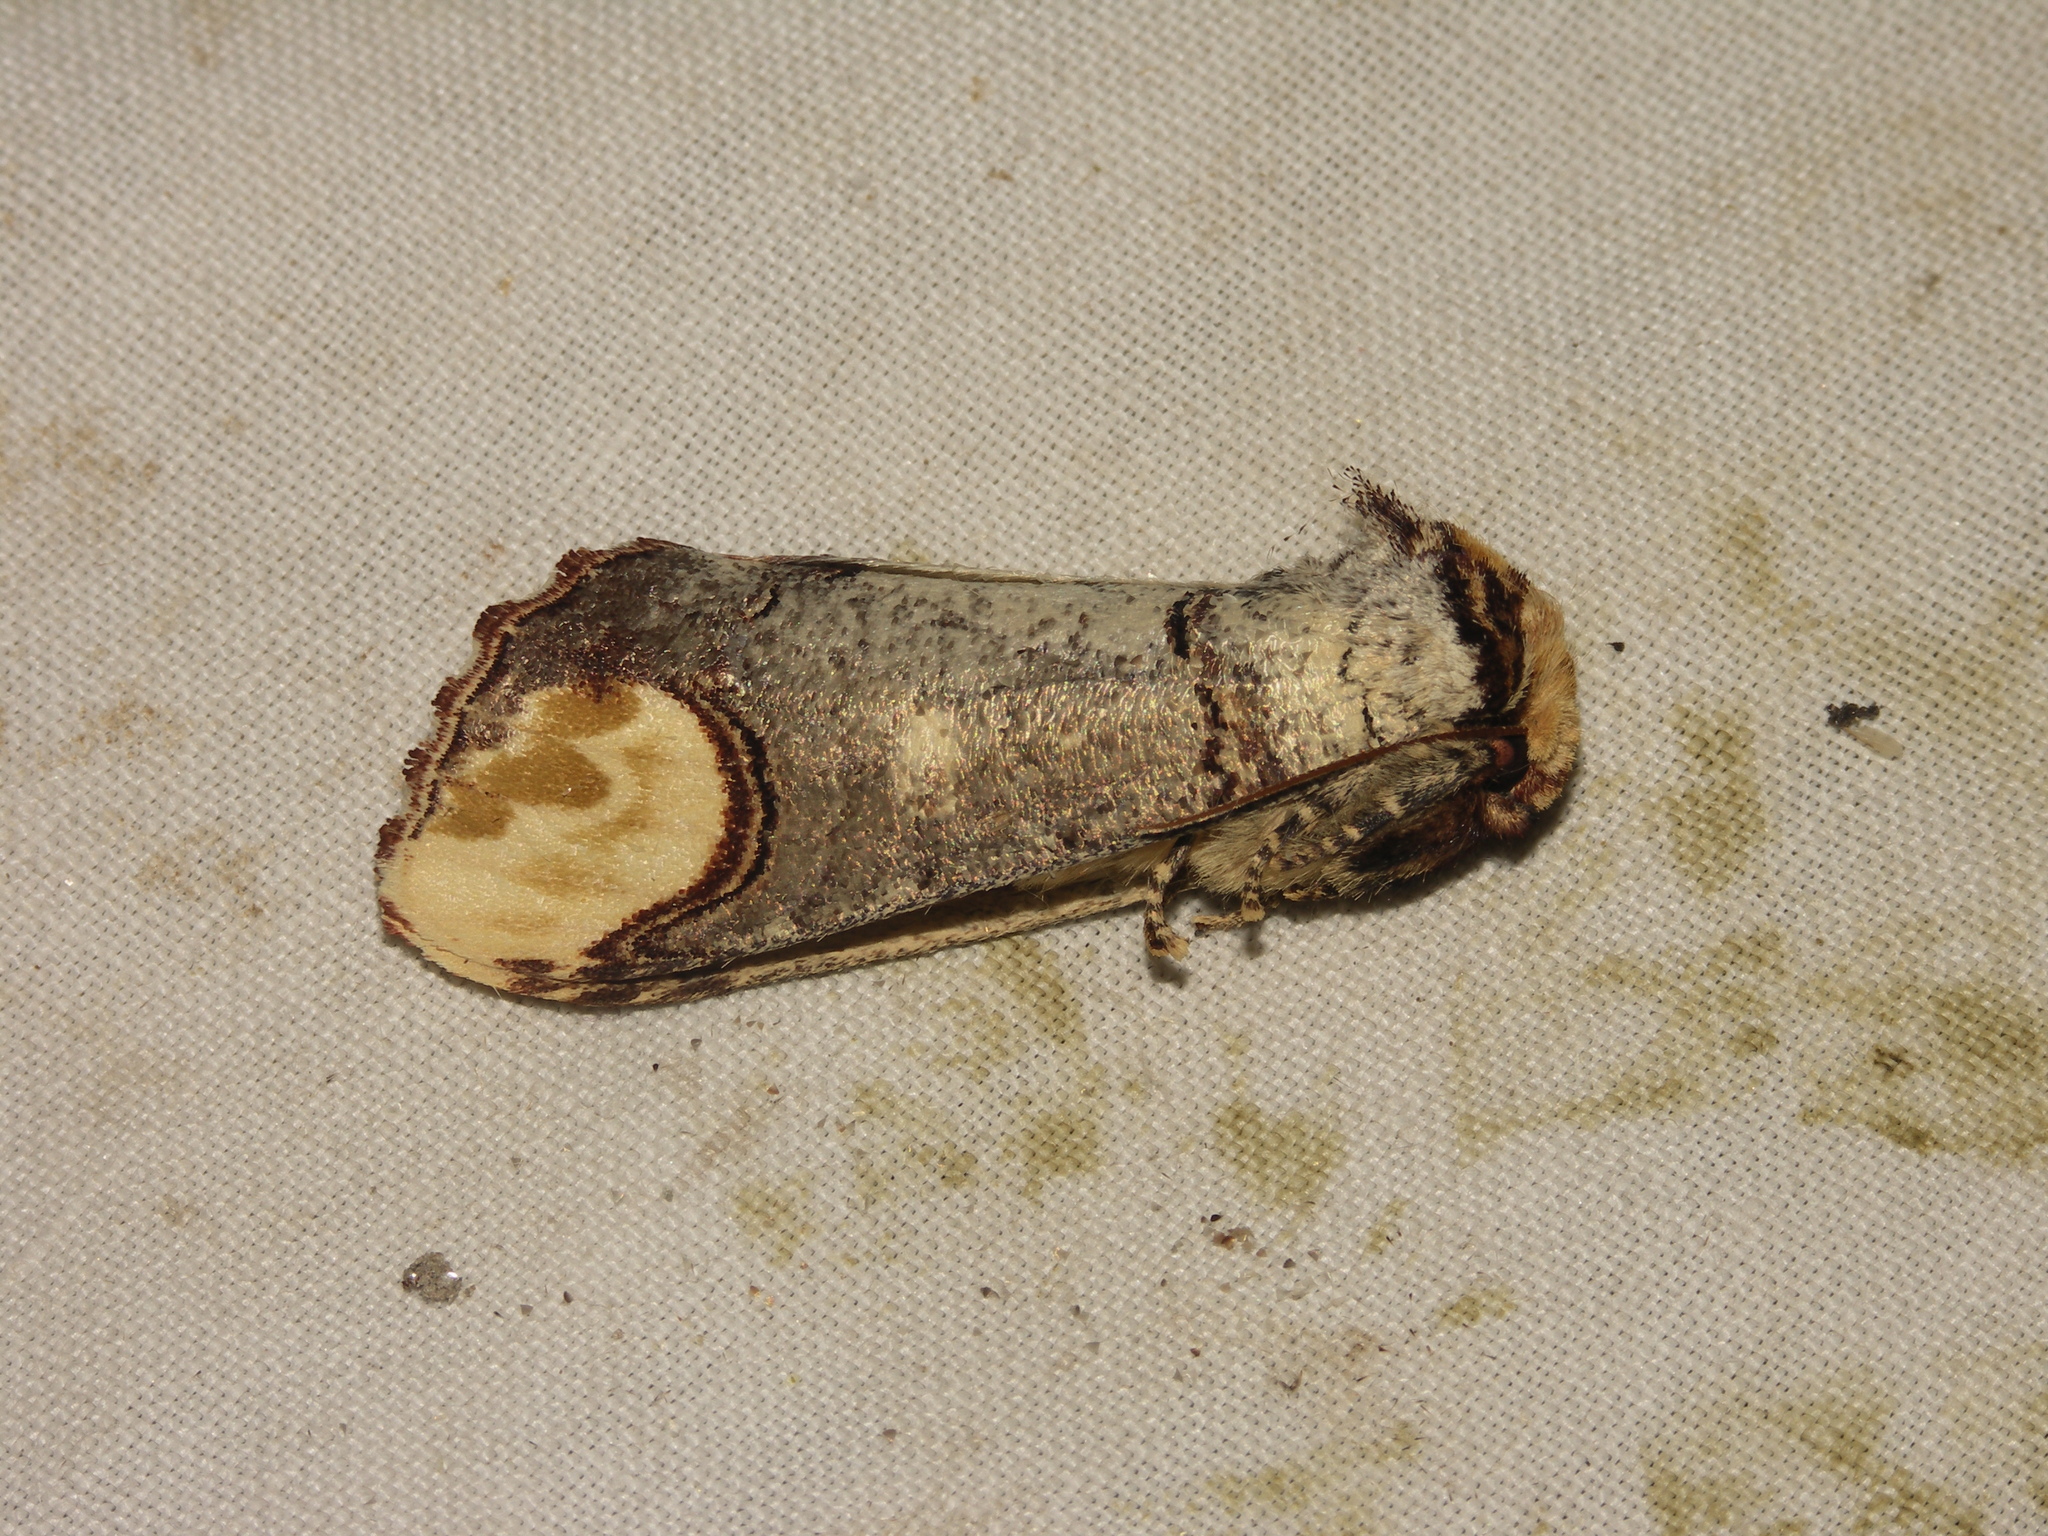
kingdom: Animalia
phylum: Arthropoda
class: Insecta
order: Lepidoptera
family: Notodontidae
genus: Phalera
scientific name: Phalera bucephala
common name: Buff-tip
